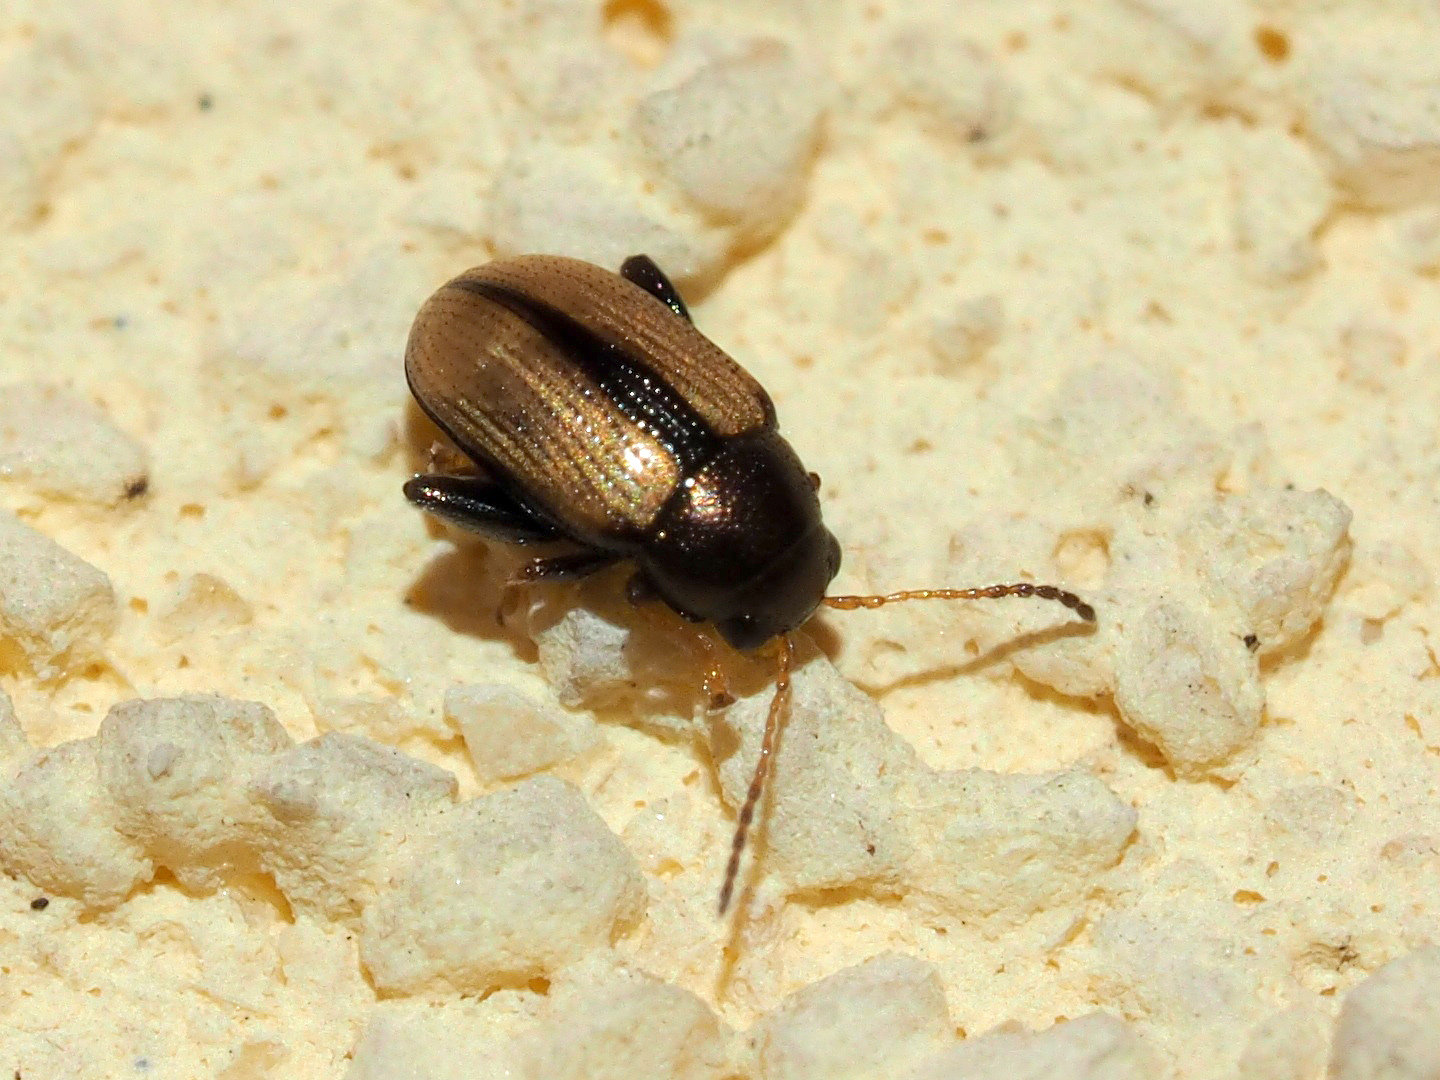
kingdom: Animalia
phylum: Arthropoda
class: Insecta
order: Coleoptera
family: Chrysomelidae
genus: Chaetocnema
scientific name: Chaetocnema conducta
